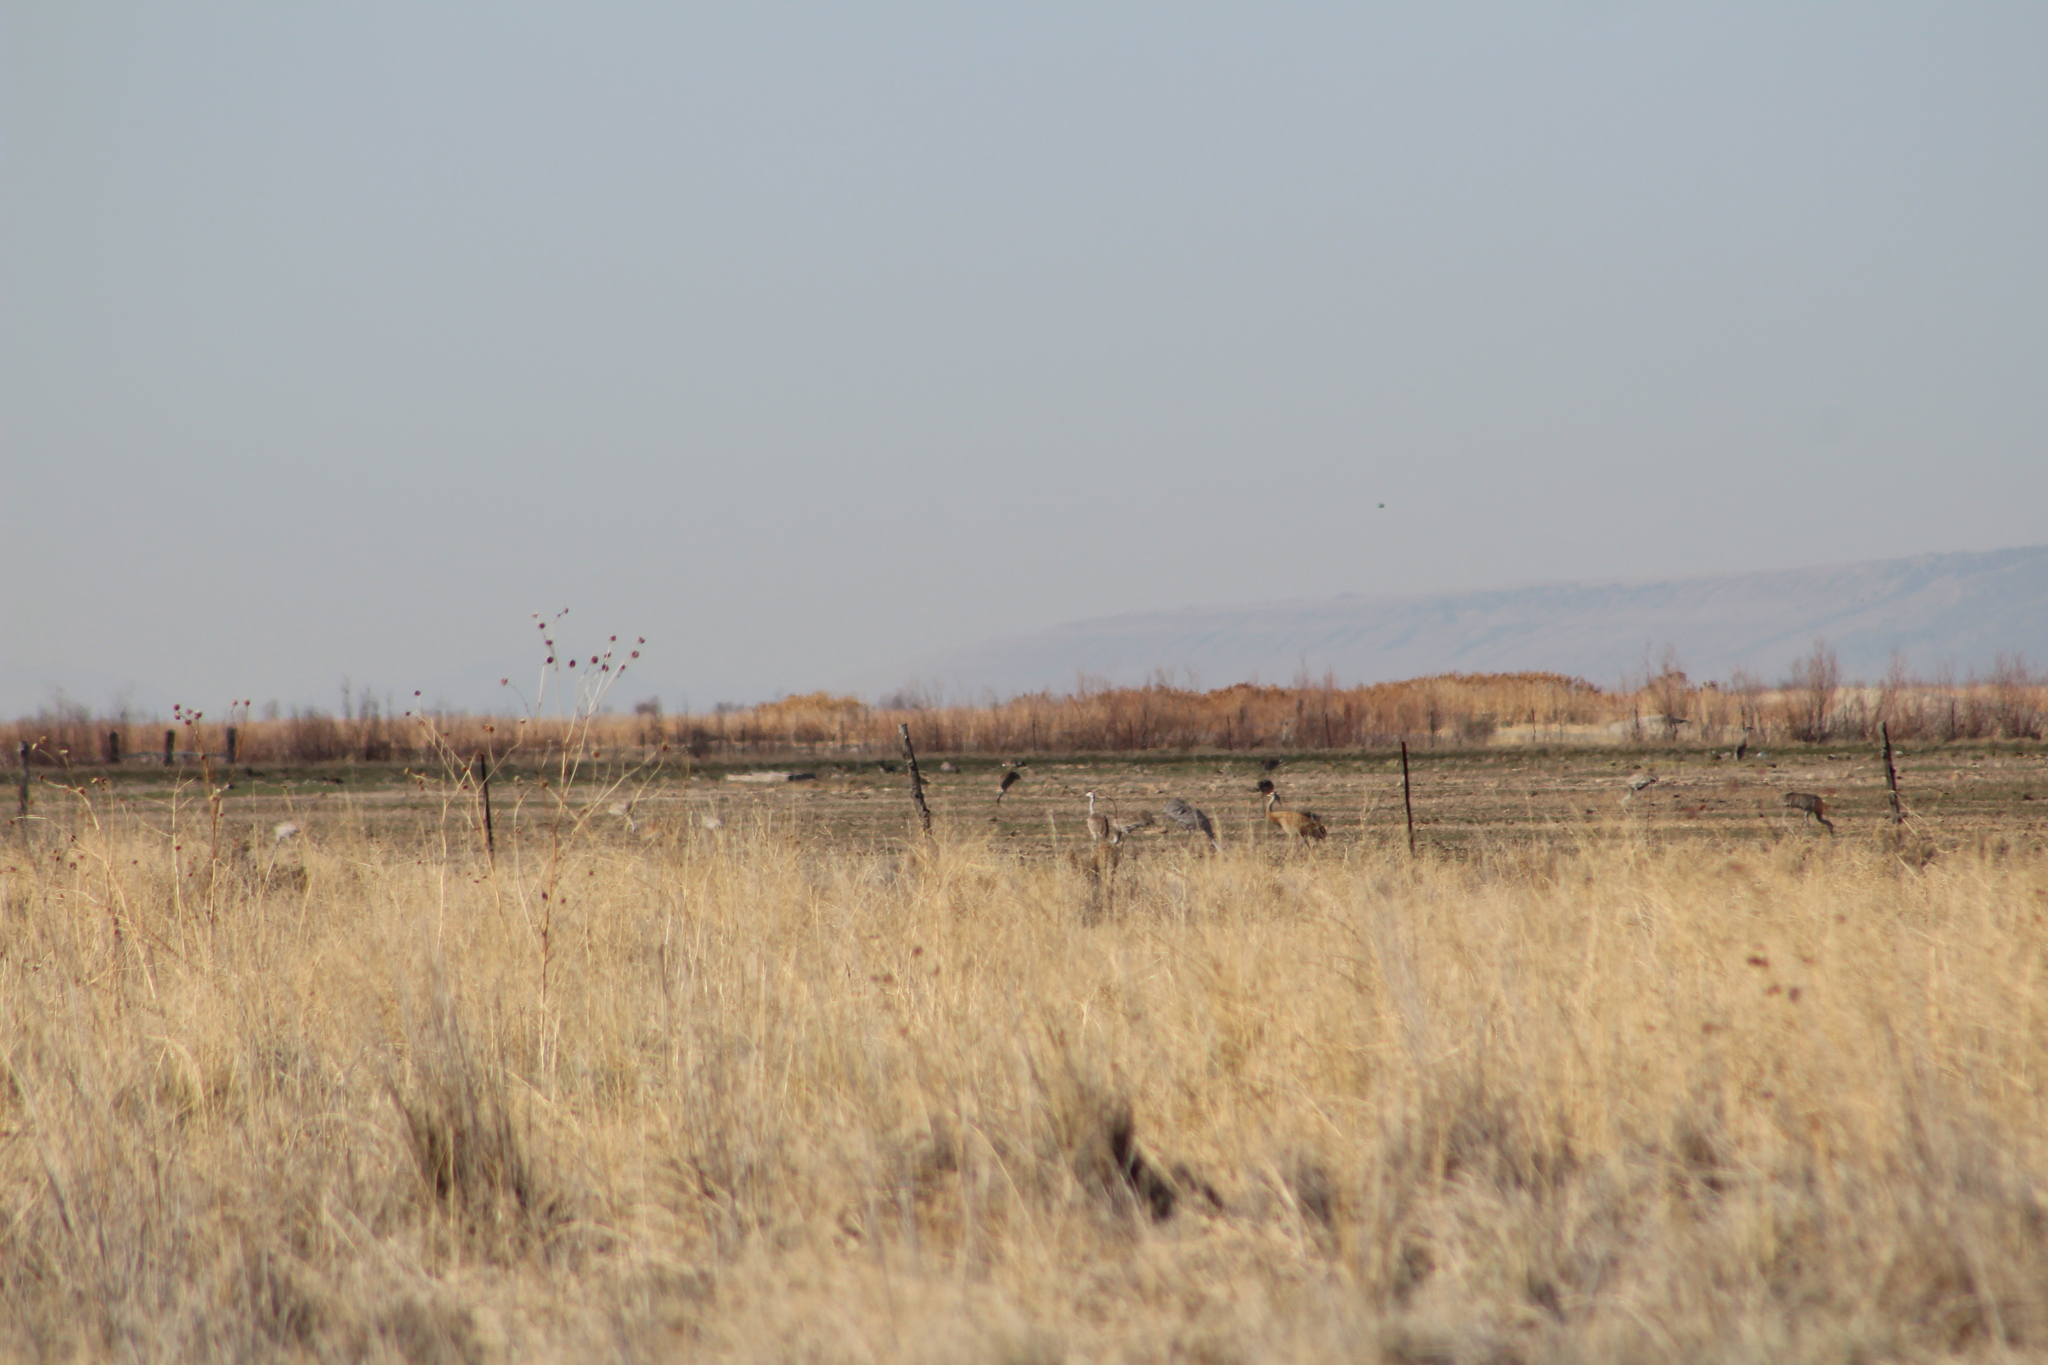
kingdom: Animalia
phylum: Chordata
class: Aves
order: Gruiformes
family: Gruidae
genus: Grus
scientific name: Grus canadensis
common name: Sandhill crane
